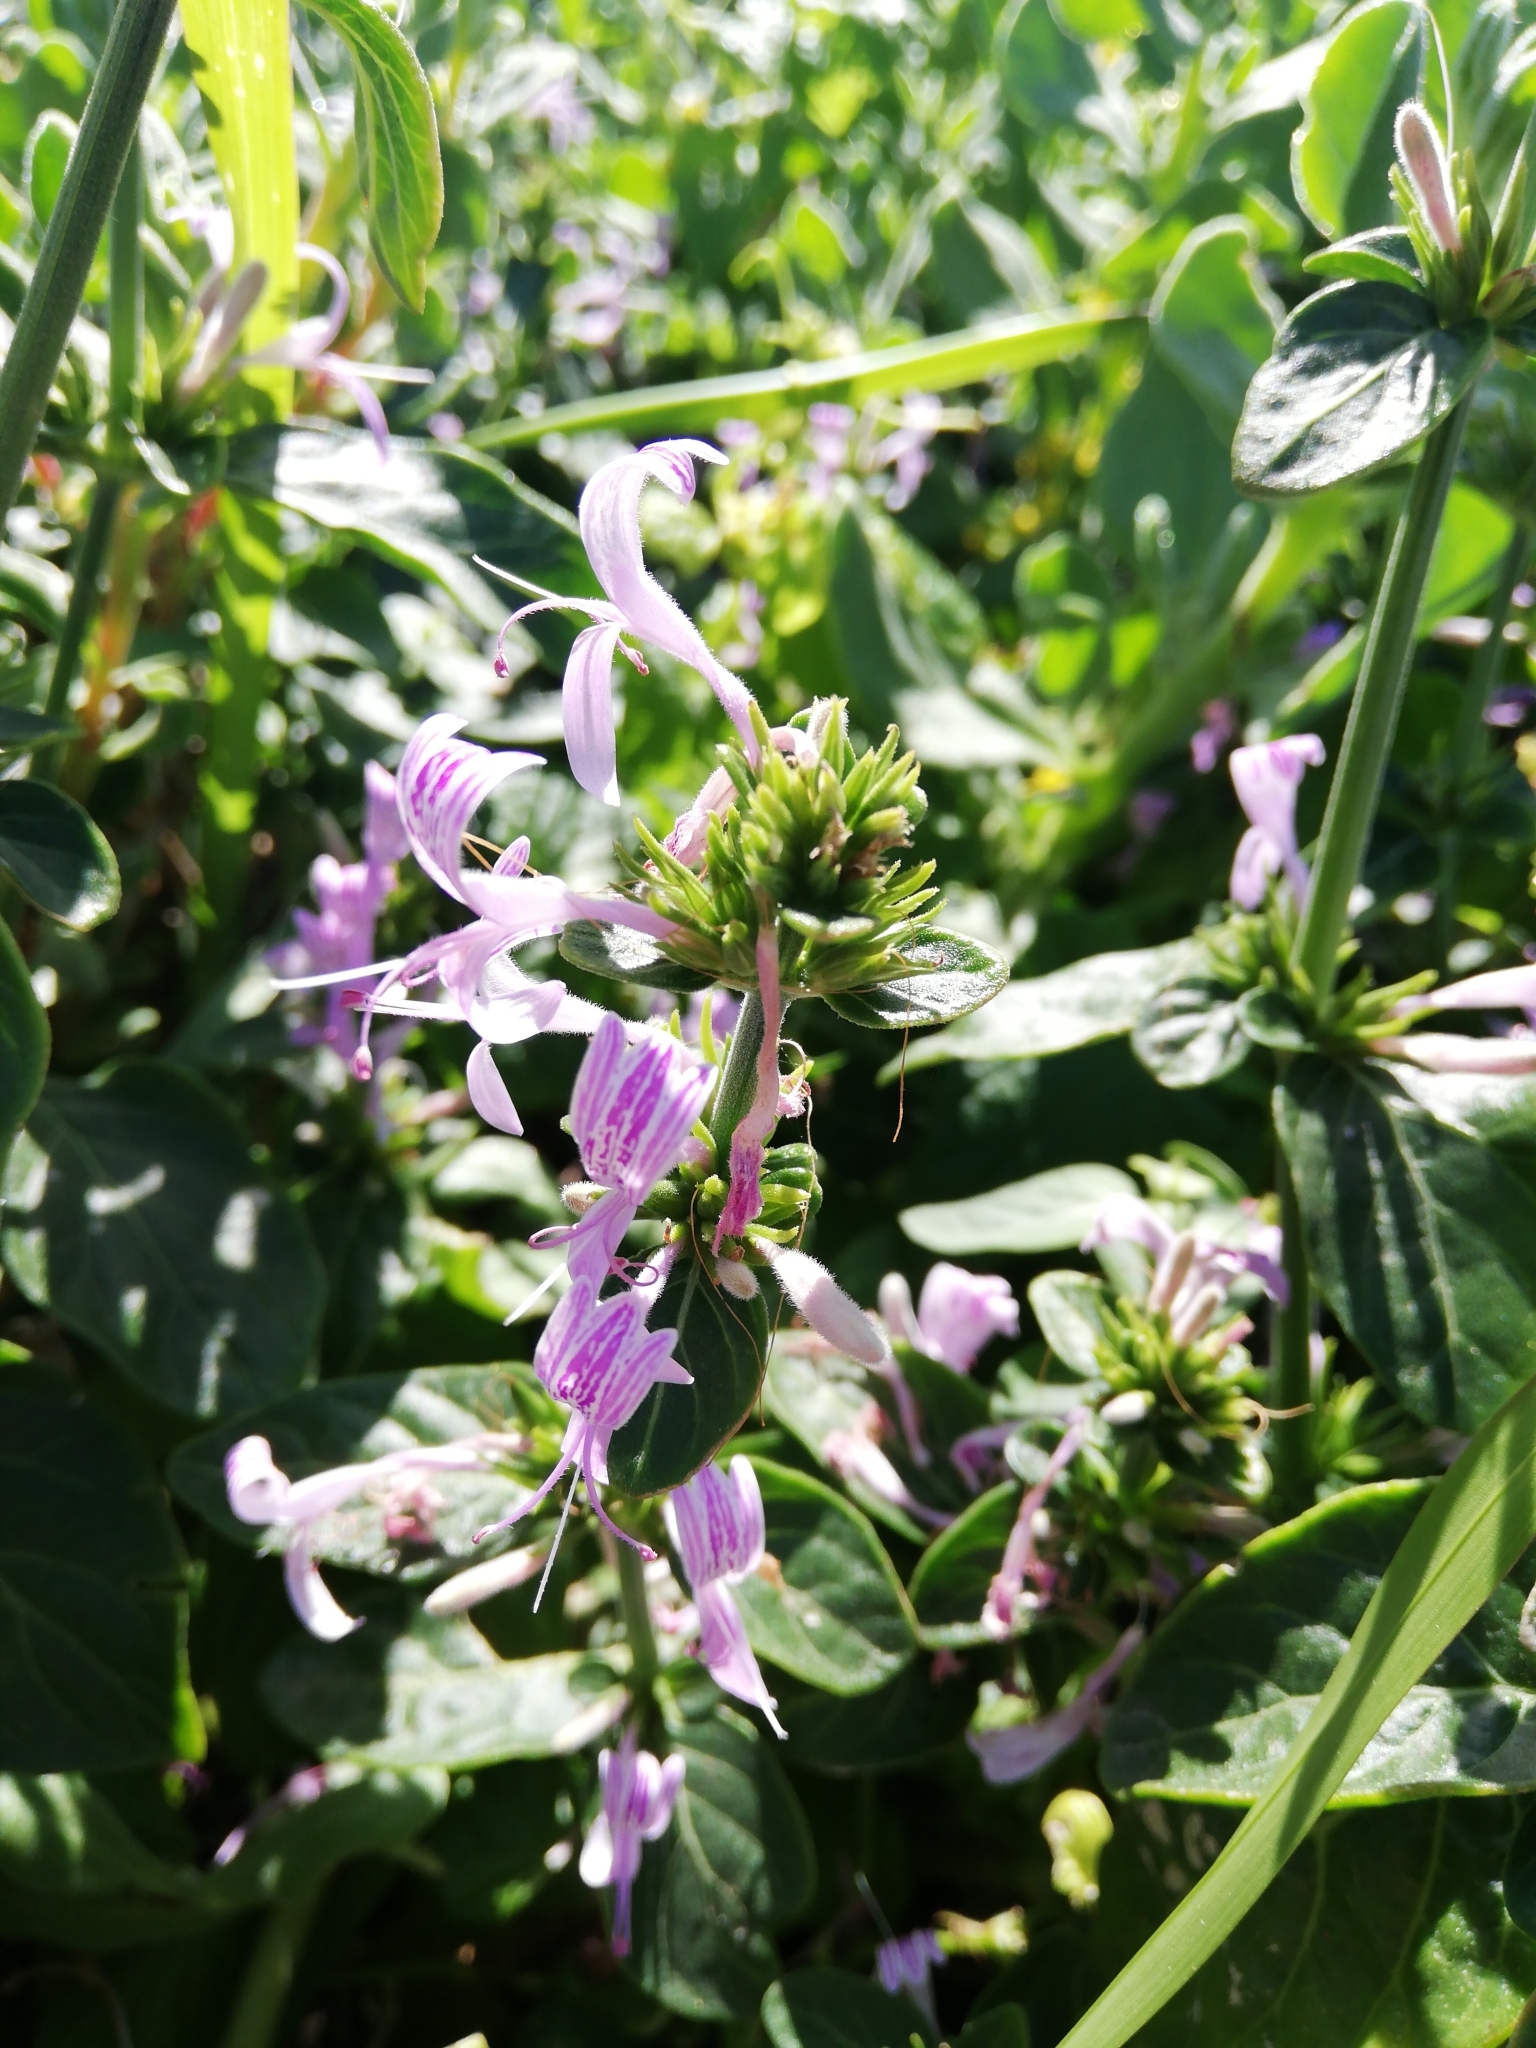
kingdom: Plantae
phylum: Tracheophyta
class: Magnoliopsida
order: Lamiales
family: Acanthaceae
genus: Hypoestes
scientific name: Hypoestes aristata
